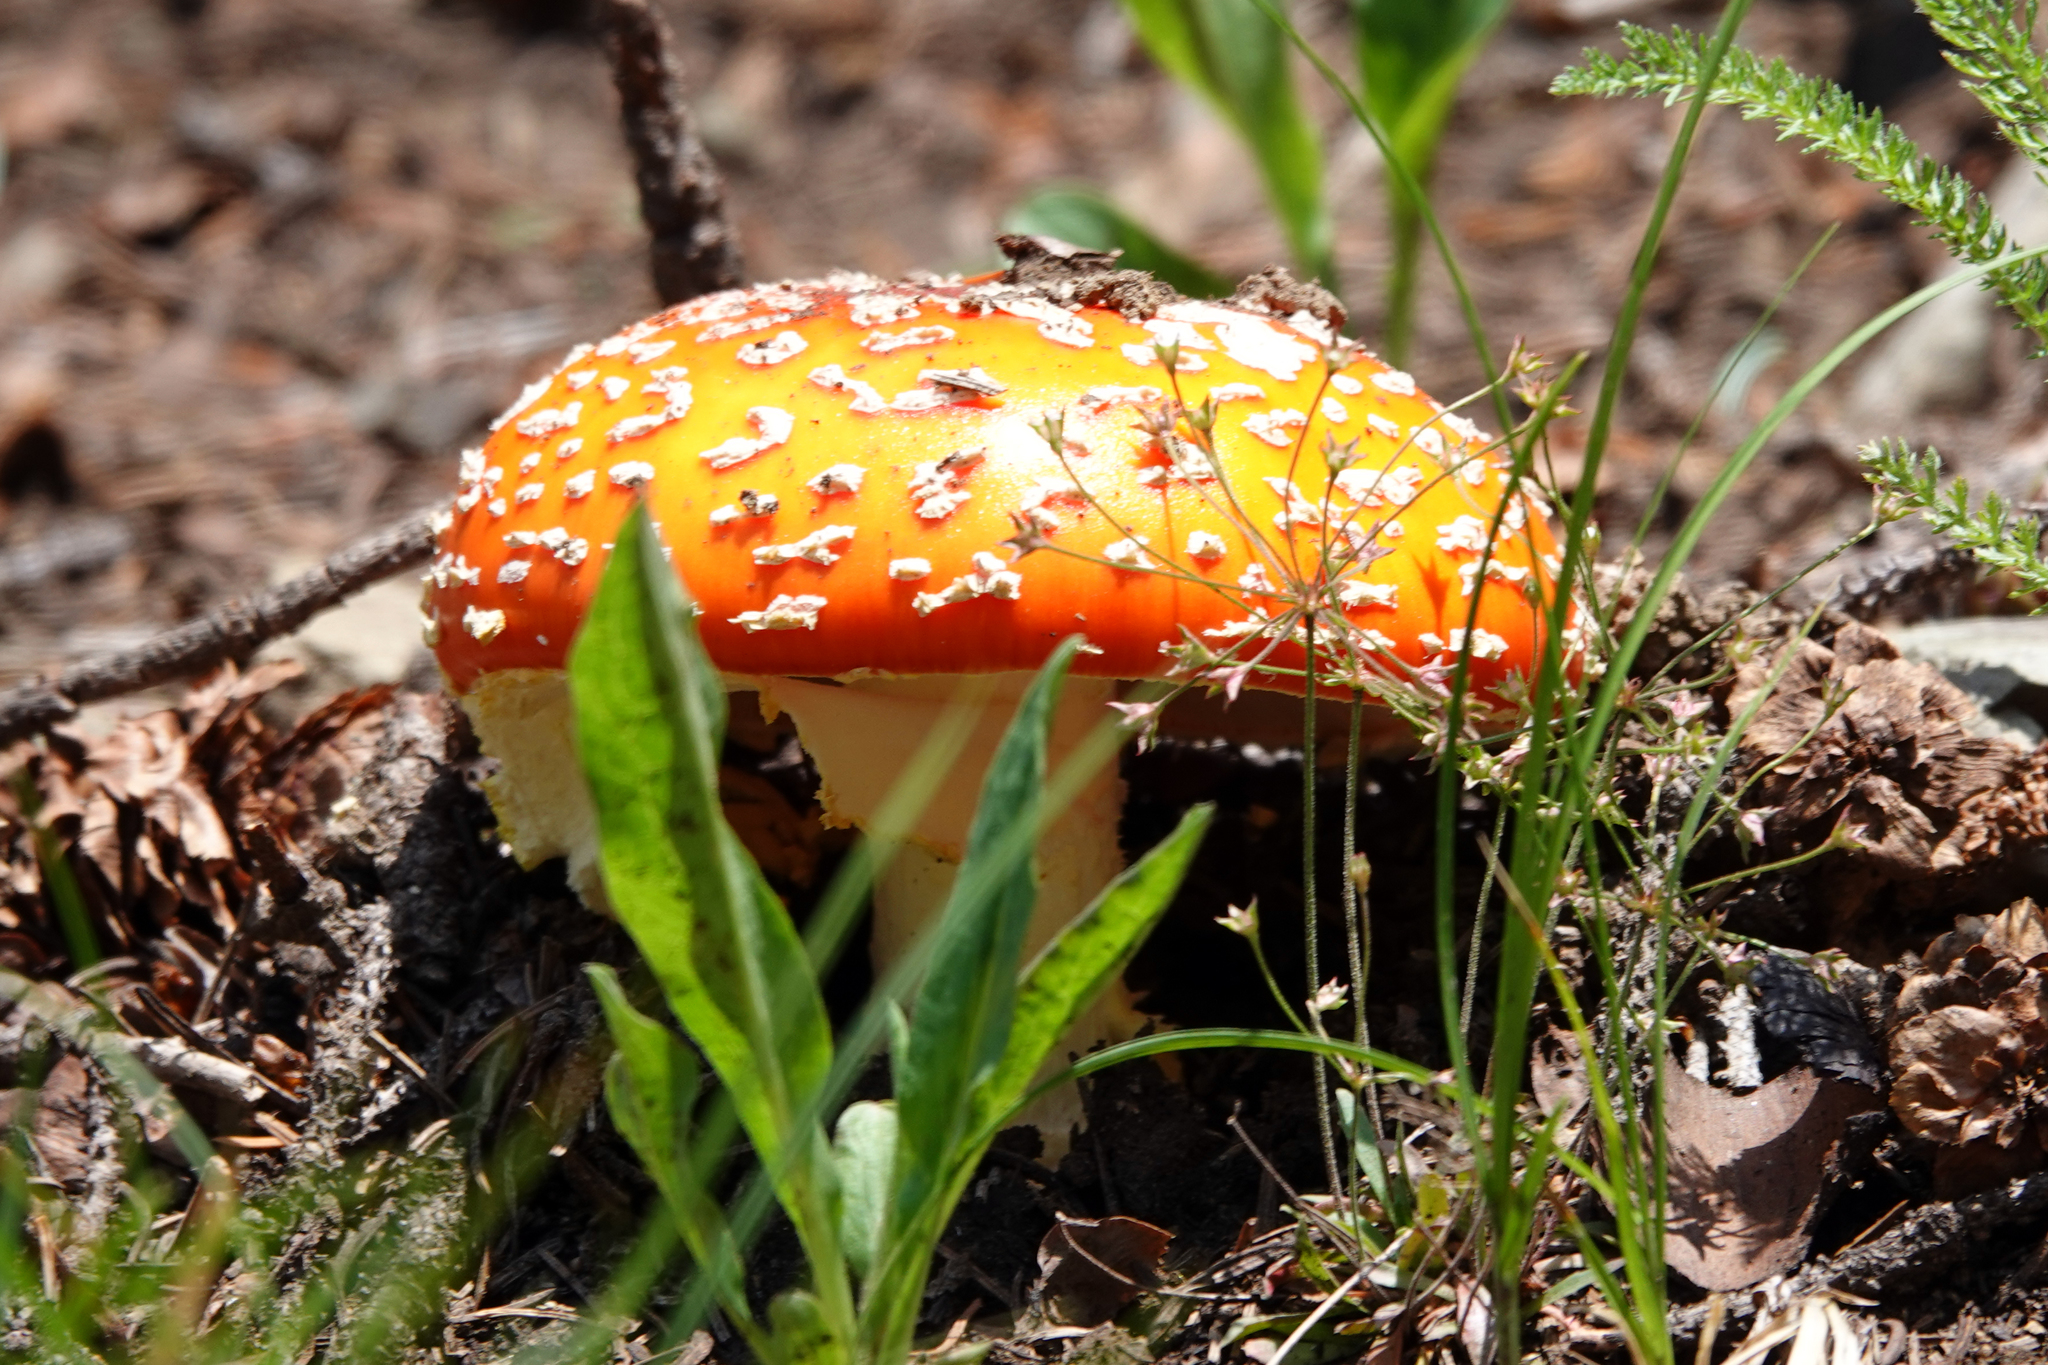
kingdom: Fungi
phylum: Basidiomycota
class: Agaricomycetes
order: Agaricales
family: Amanitaceae
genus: Amanita
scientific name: Amanita muscaria
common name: Fly agaric
